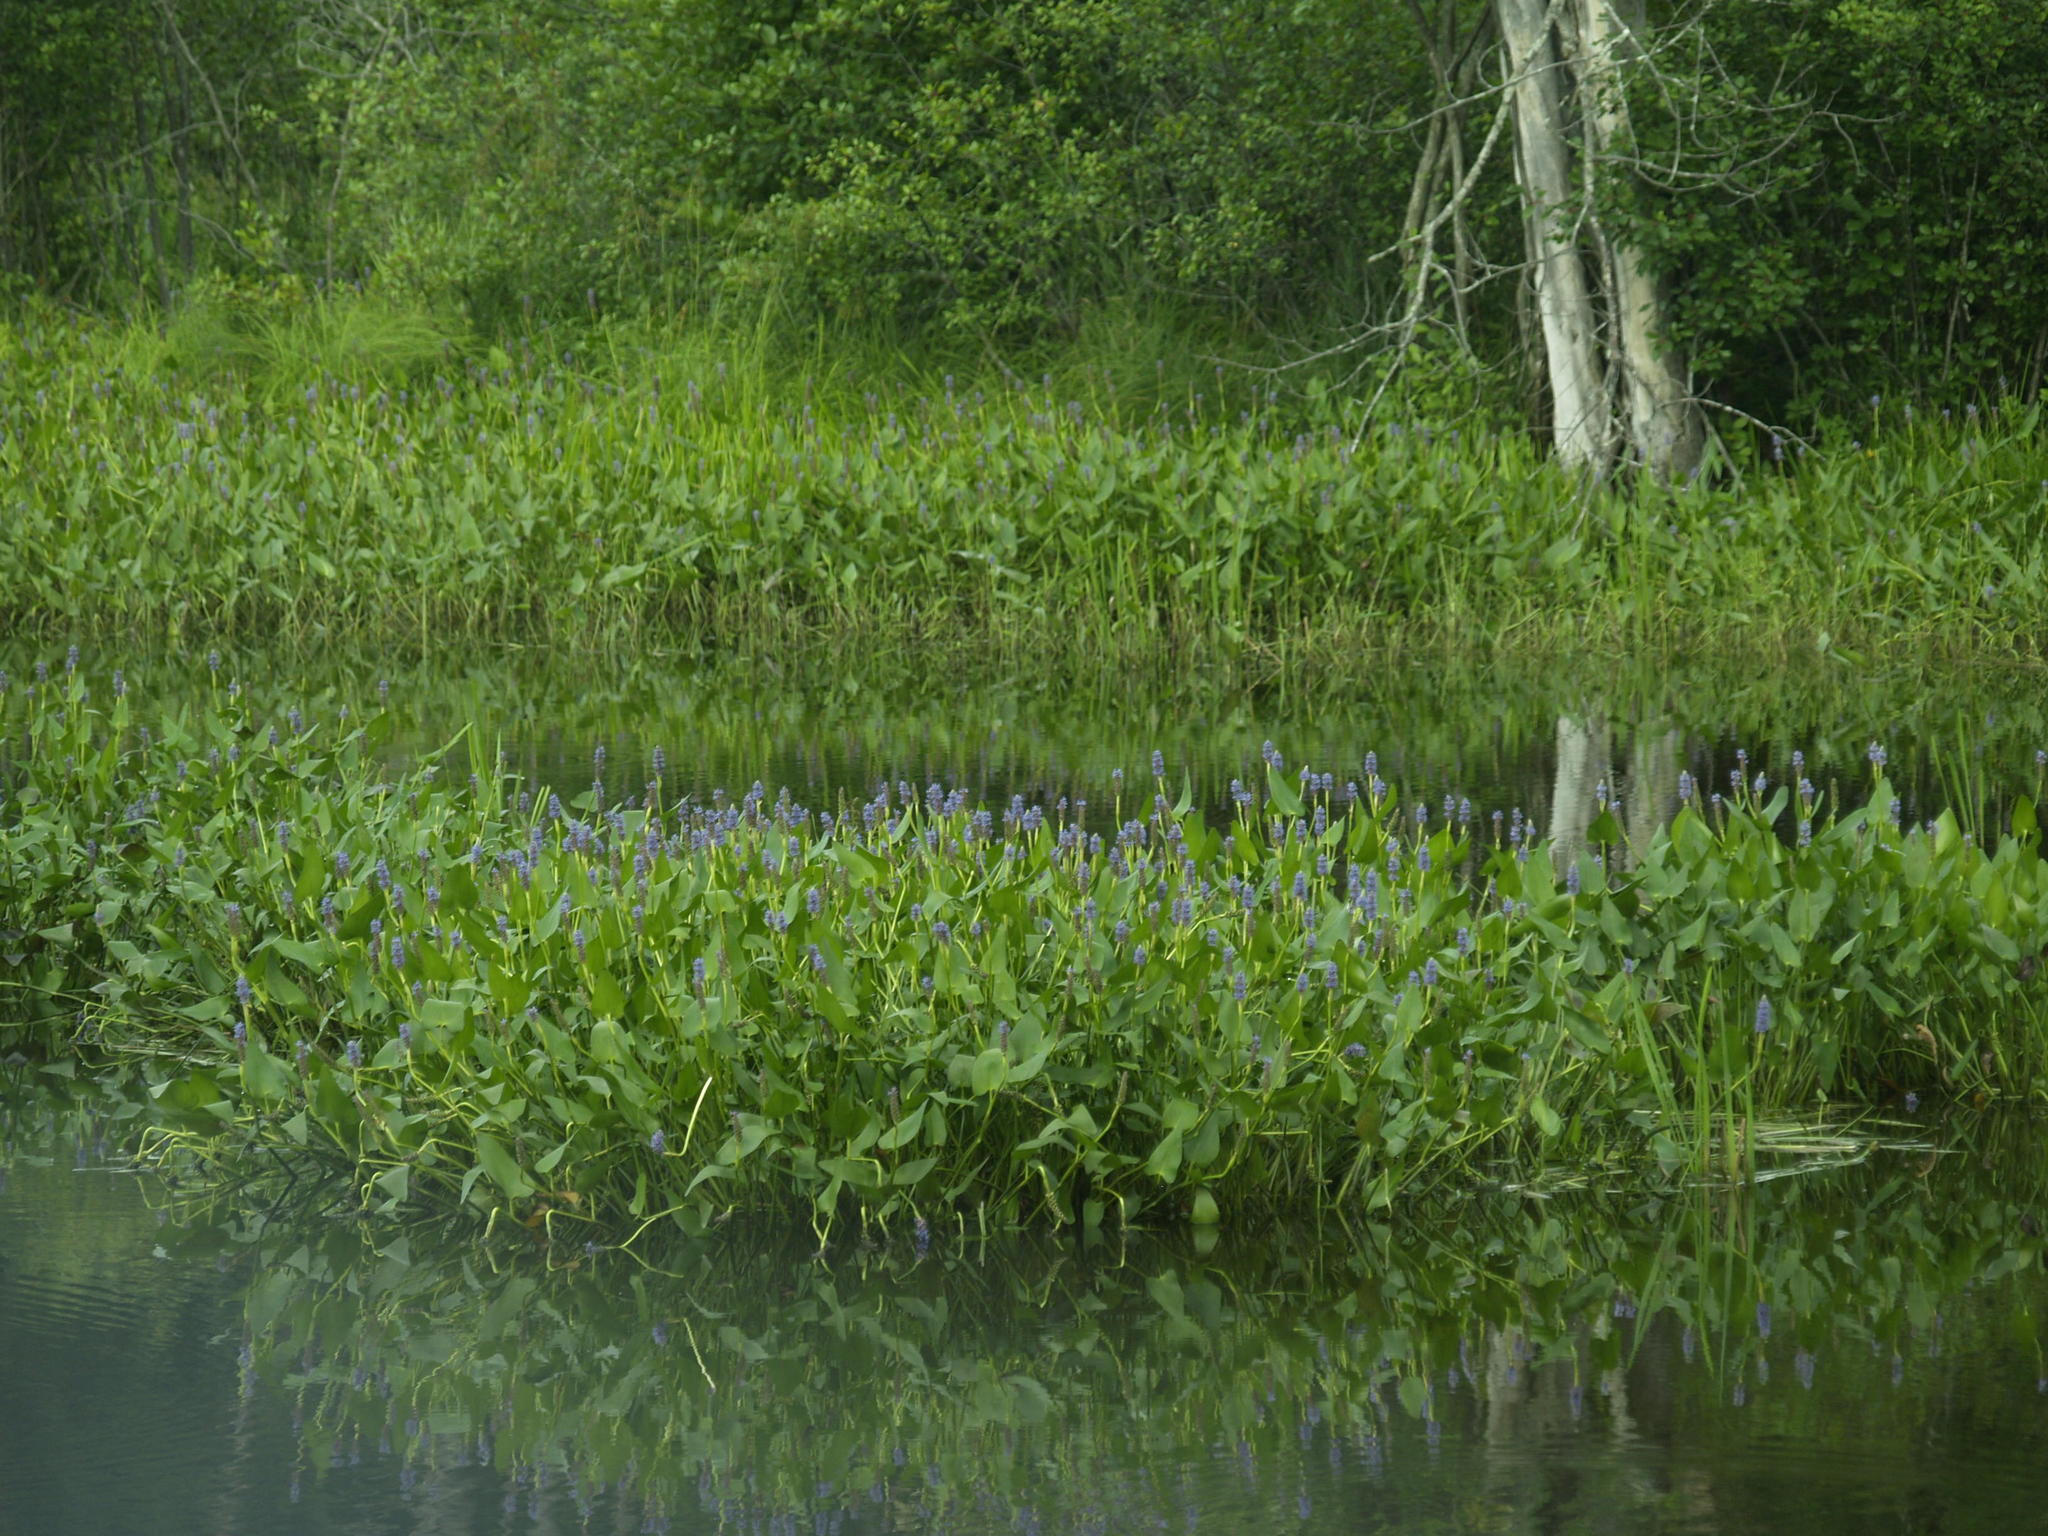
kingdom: Plantae
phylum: Tracheophyta
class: Liliopsida
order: Commelinales
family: Pontederiaceae
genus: Pontederia
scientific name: Pontederia cordata
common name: Pickerelweed
